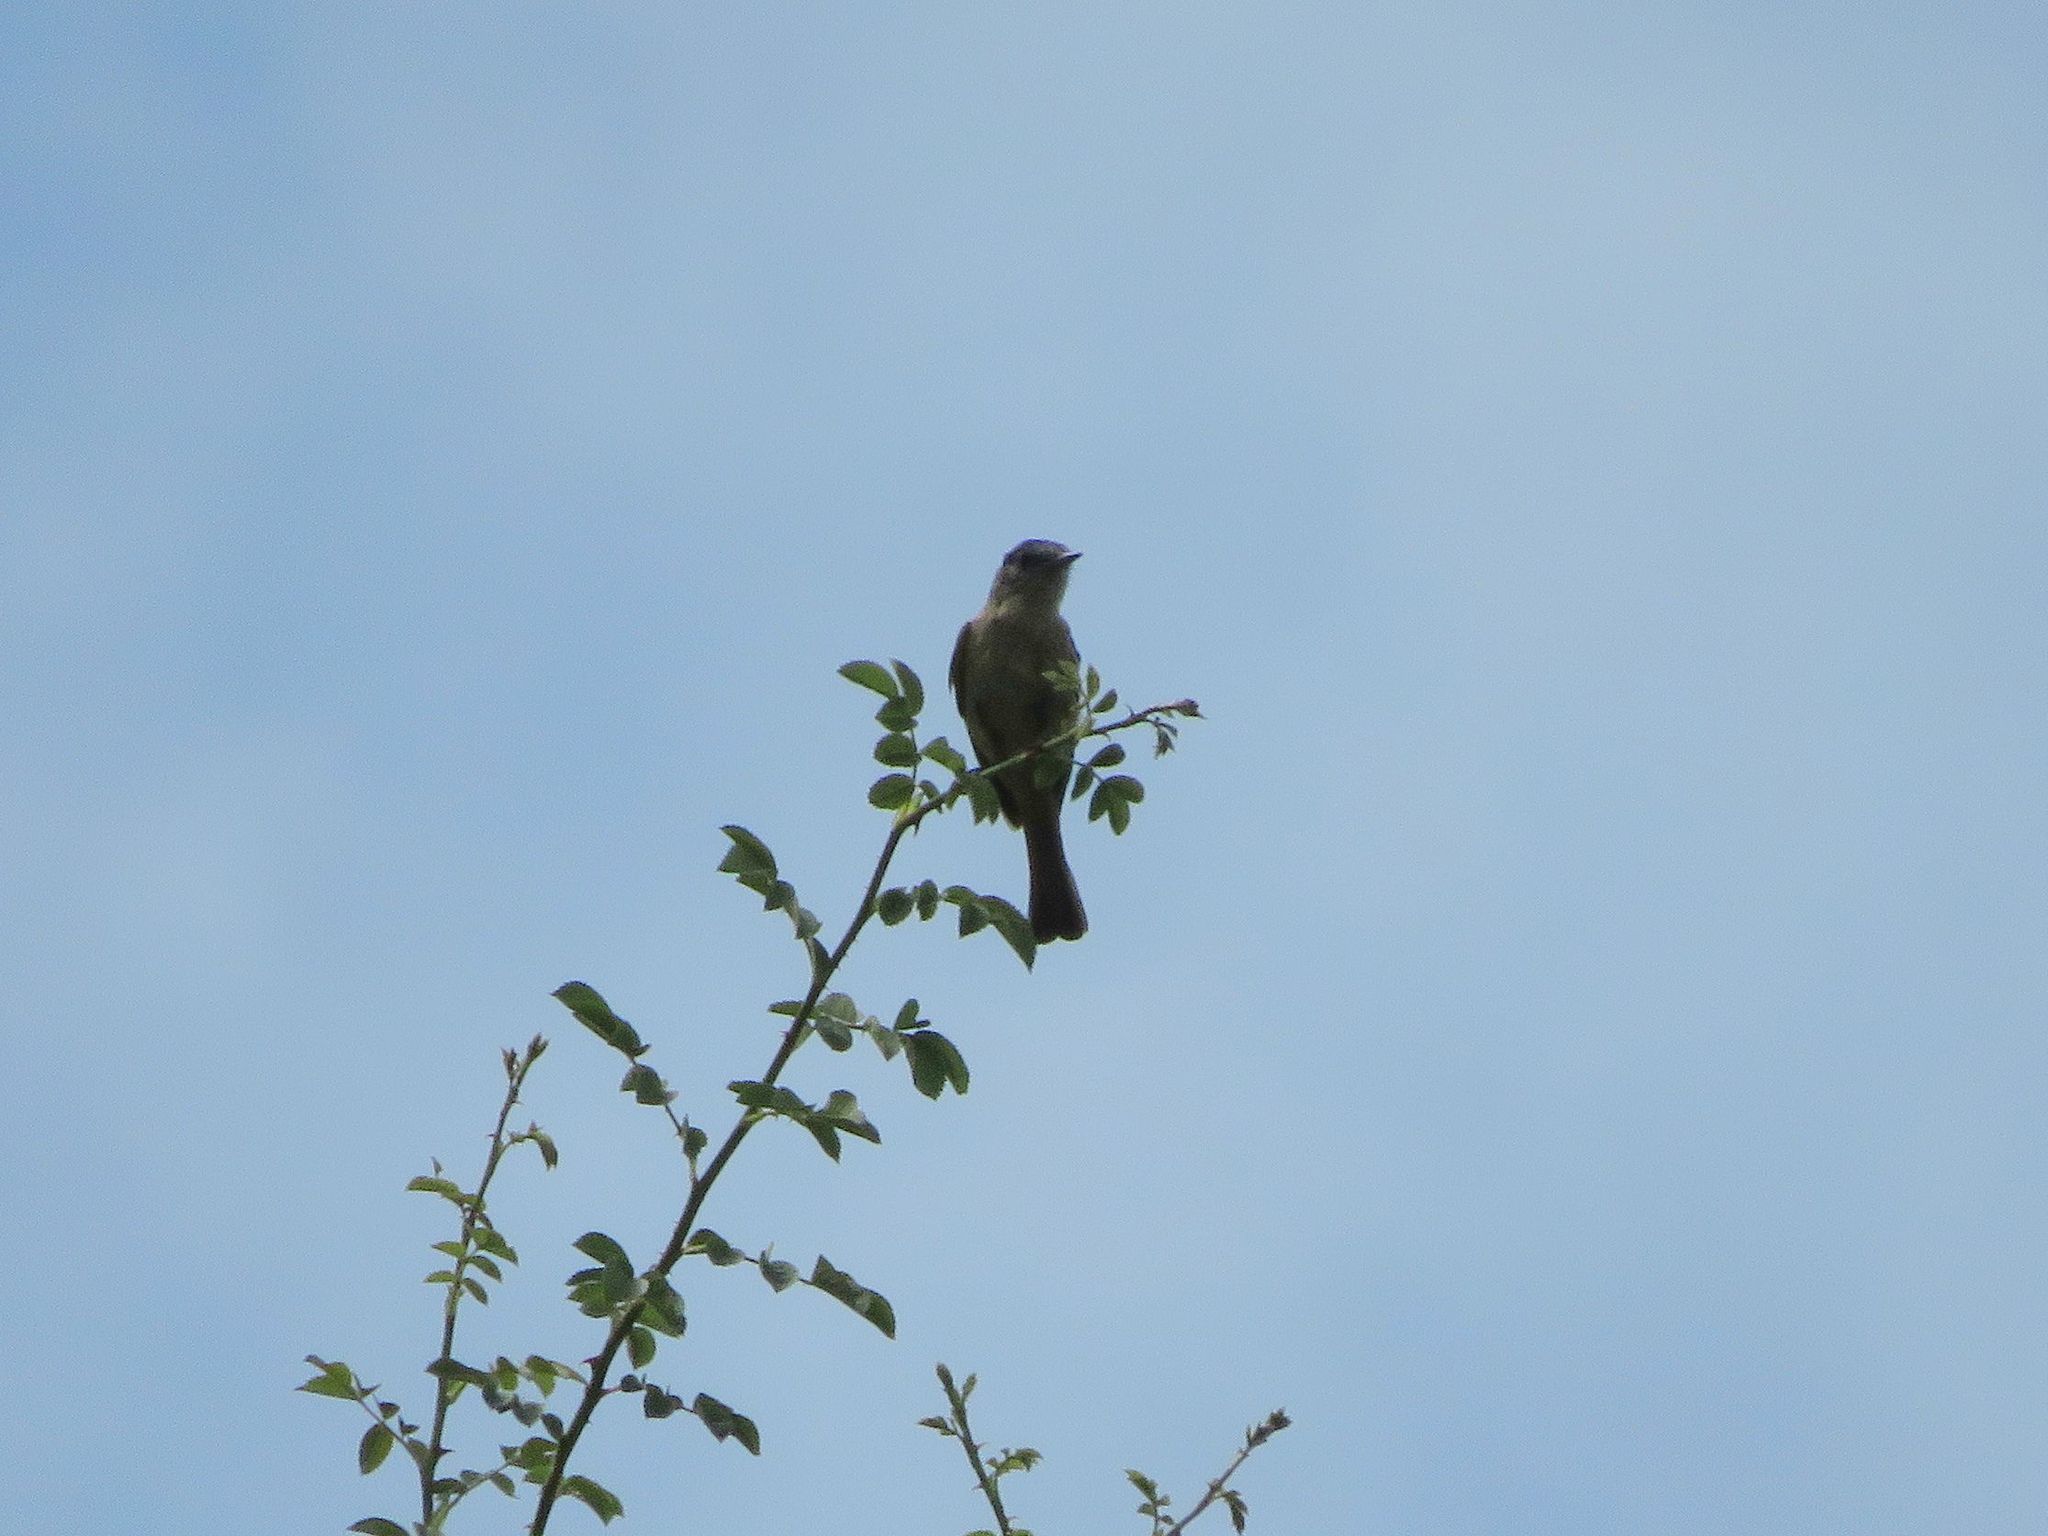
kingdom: Animalia
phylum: Chordata
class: Aves
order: Passeriformes
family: Tyrannidae
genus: Knipolegus
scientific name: Knipolegus aterrimus
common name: White-winged black tyrant
